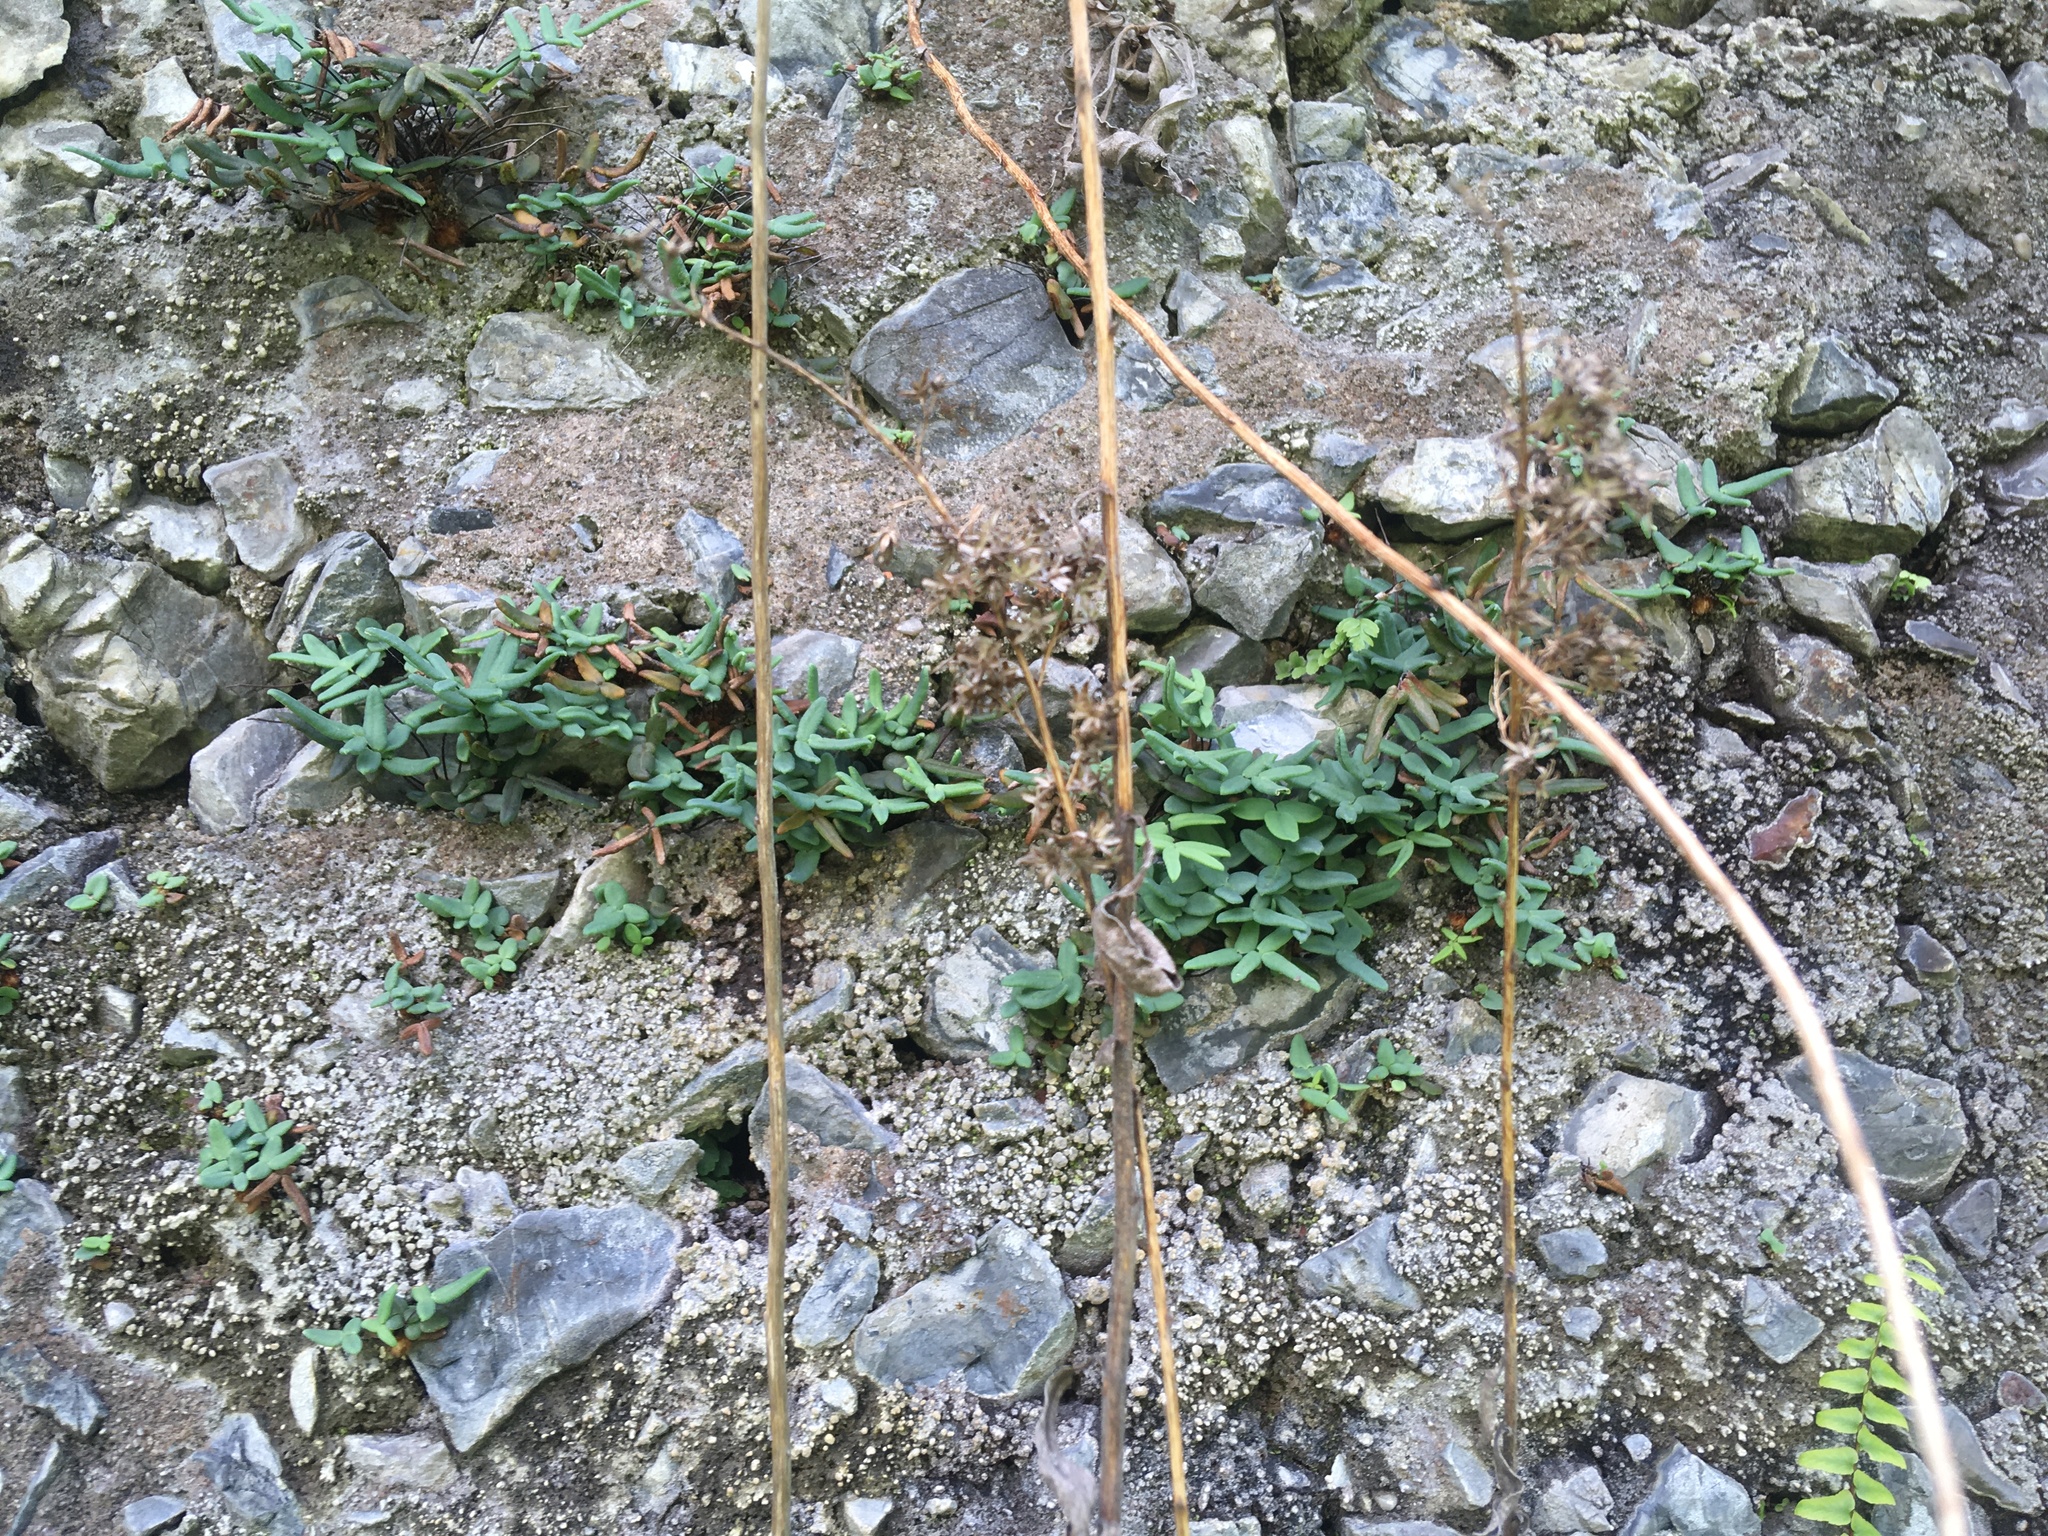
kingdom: Plantae
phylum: Tracheophyta
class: Polypodiopsida
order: Polypodiales
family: Pteridaceae
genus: Pellaea
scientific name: Pellaea glabella
